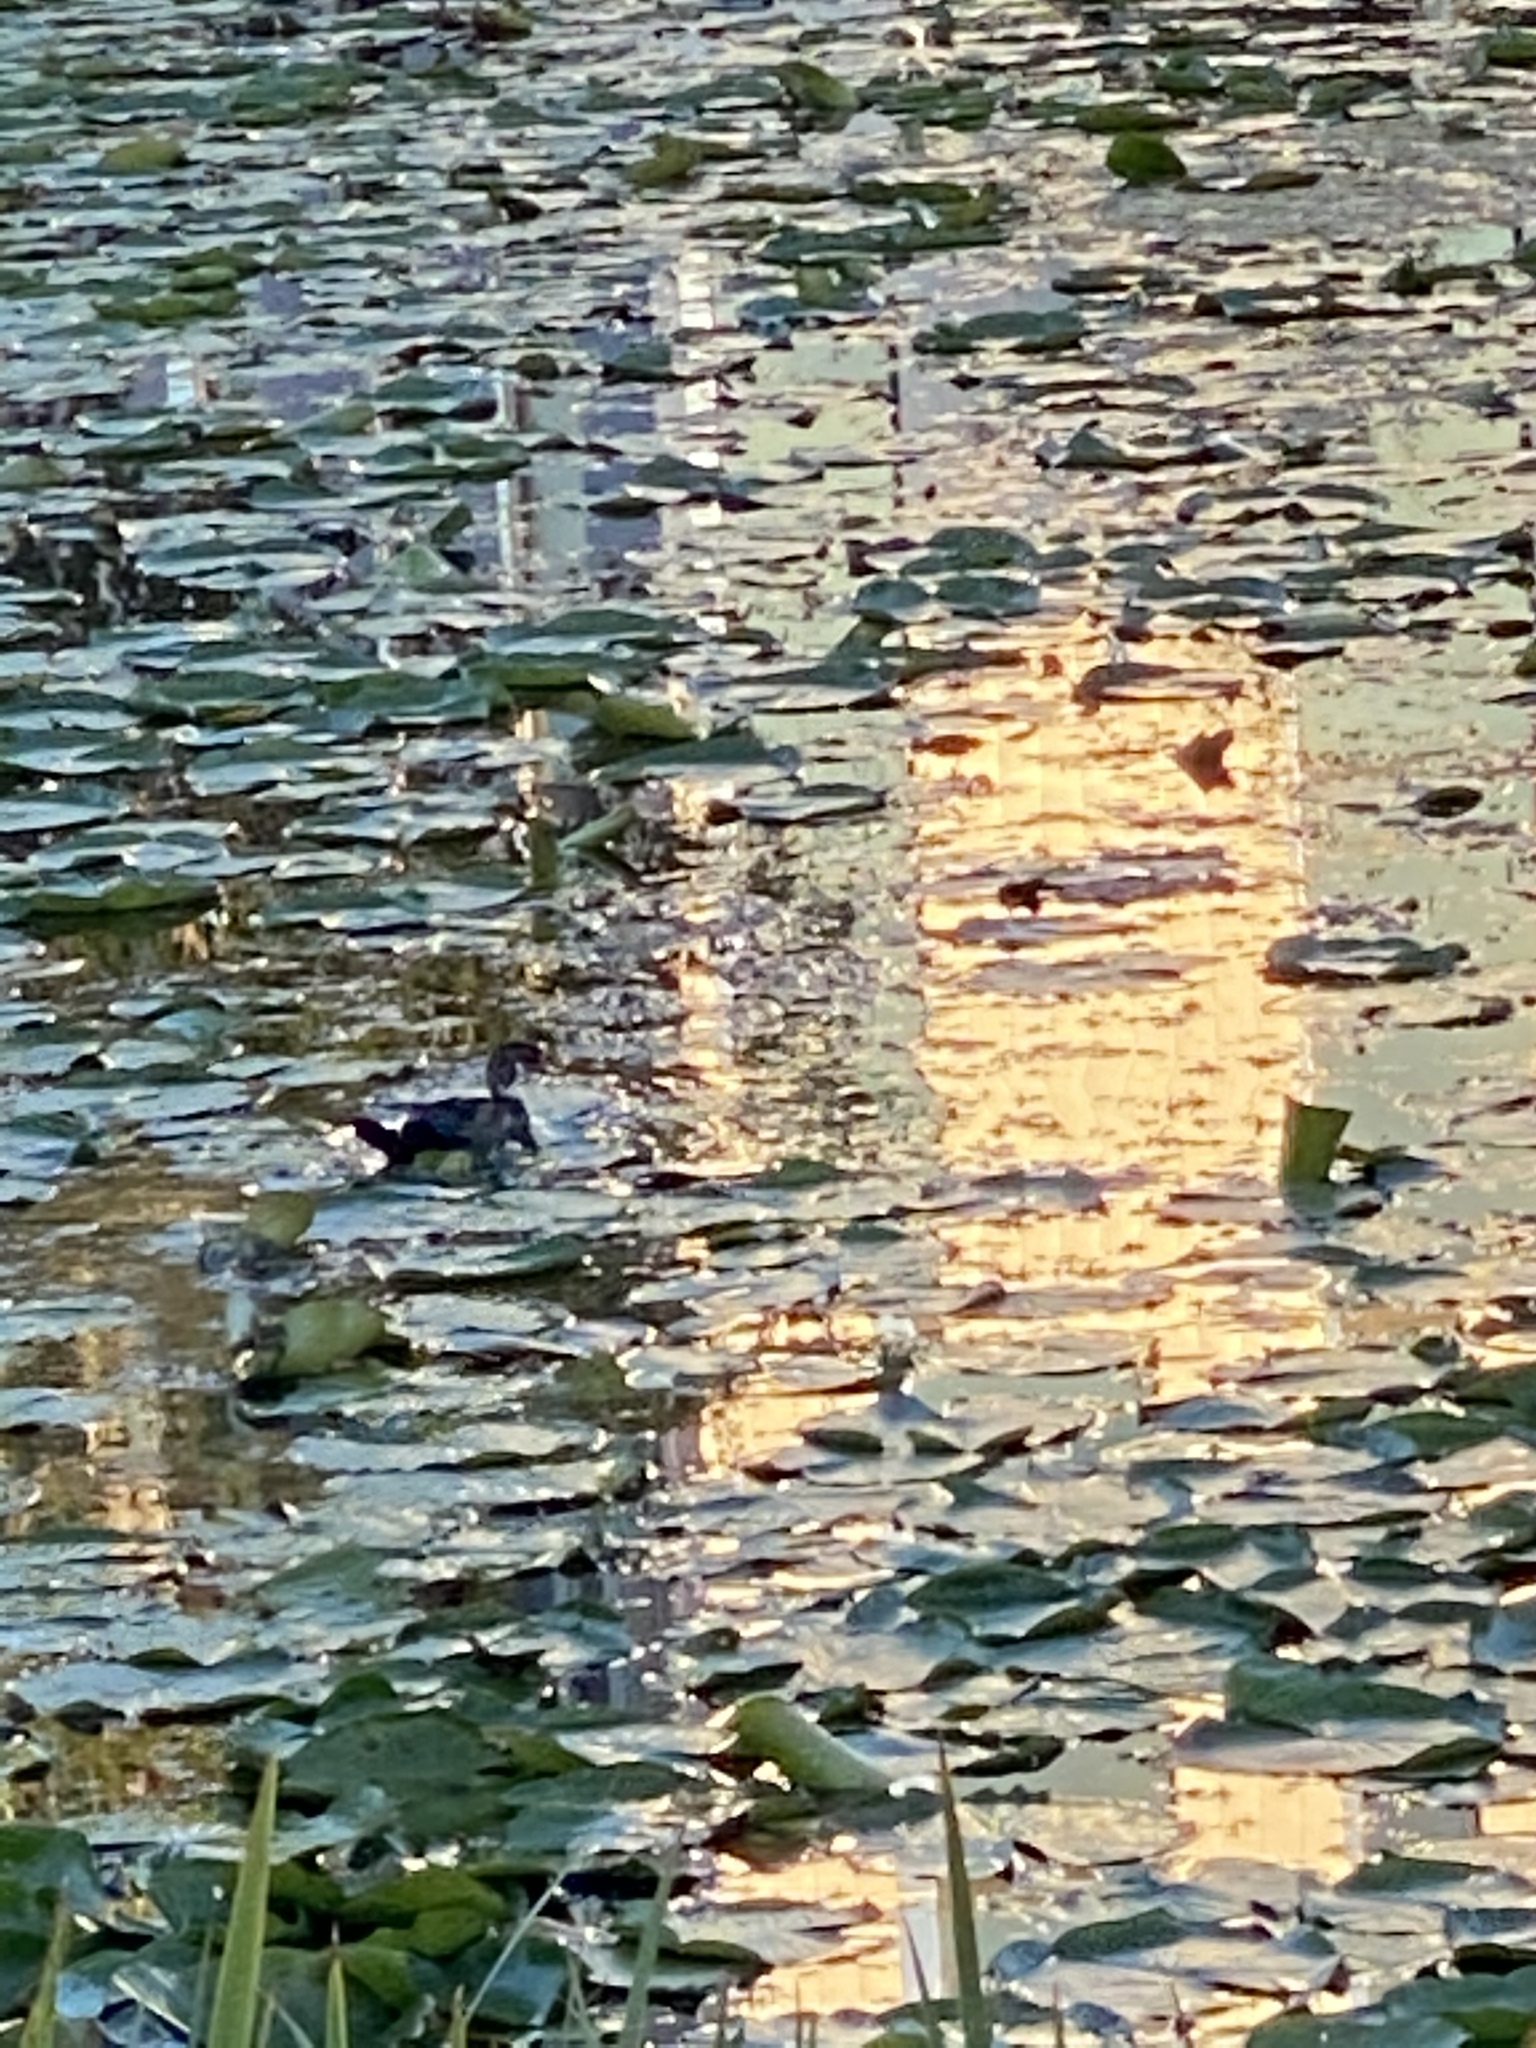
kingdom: Animalia
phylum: Chordata
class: Aves
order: Anseriformes
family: Anatidae
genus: Aix
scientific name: Aix sponsa
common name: Wood duck
